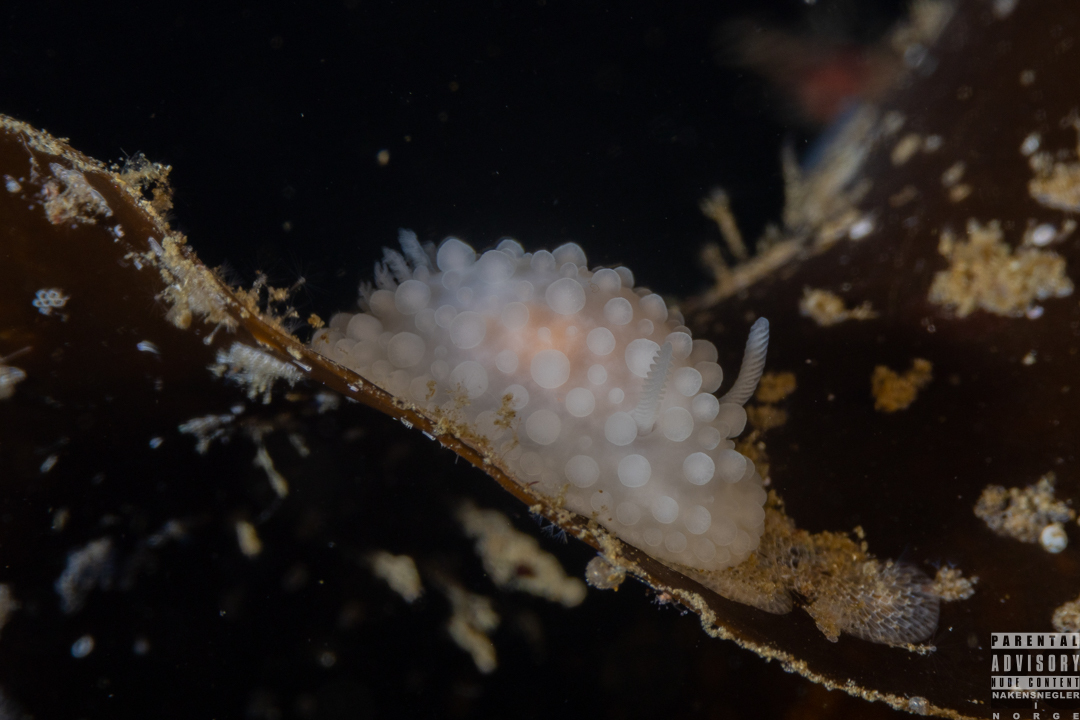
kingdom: Animalia
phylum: Mollusca
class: Gastropoda
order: Nudibranchia
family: Onchidorididae
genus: Adalaria
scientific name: Adalaria loveni
